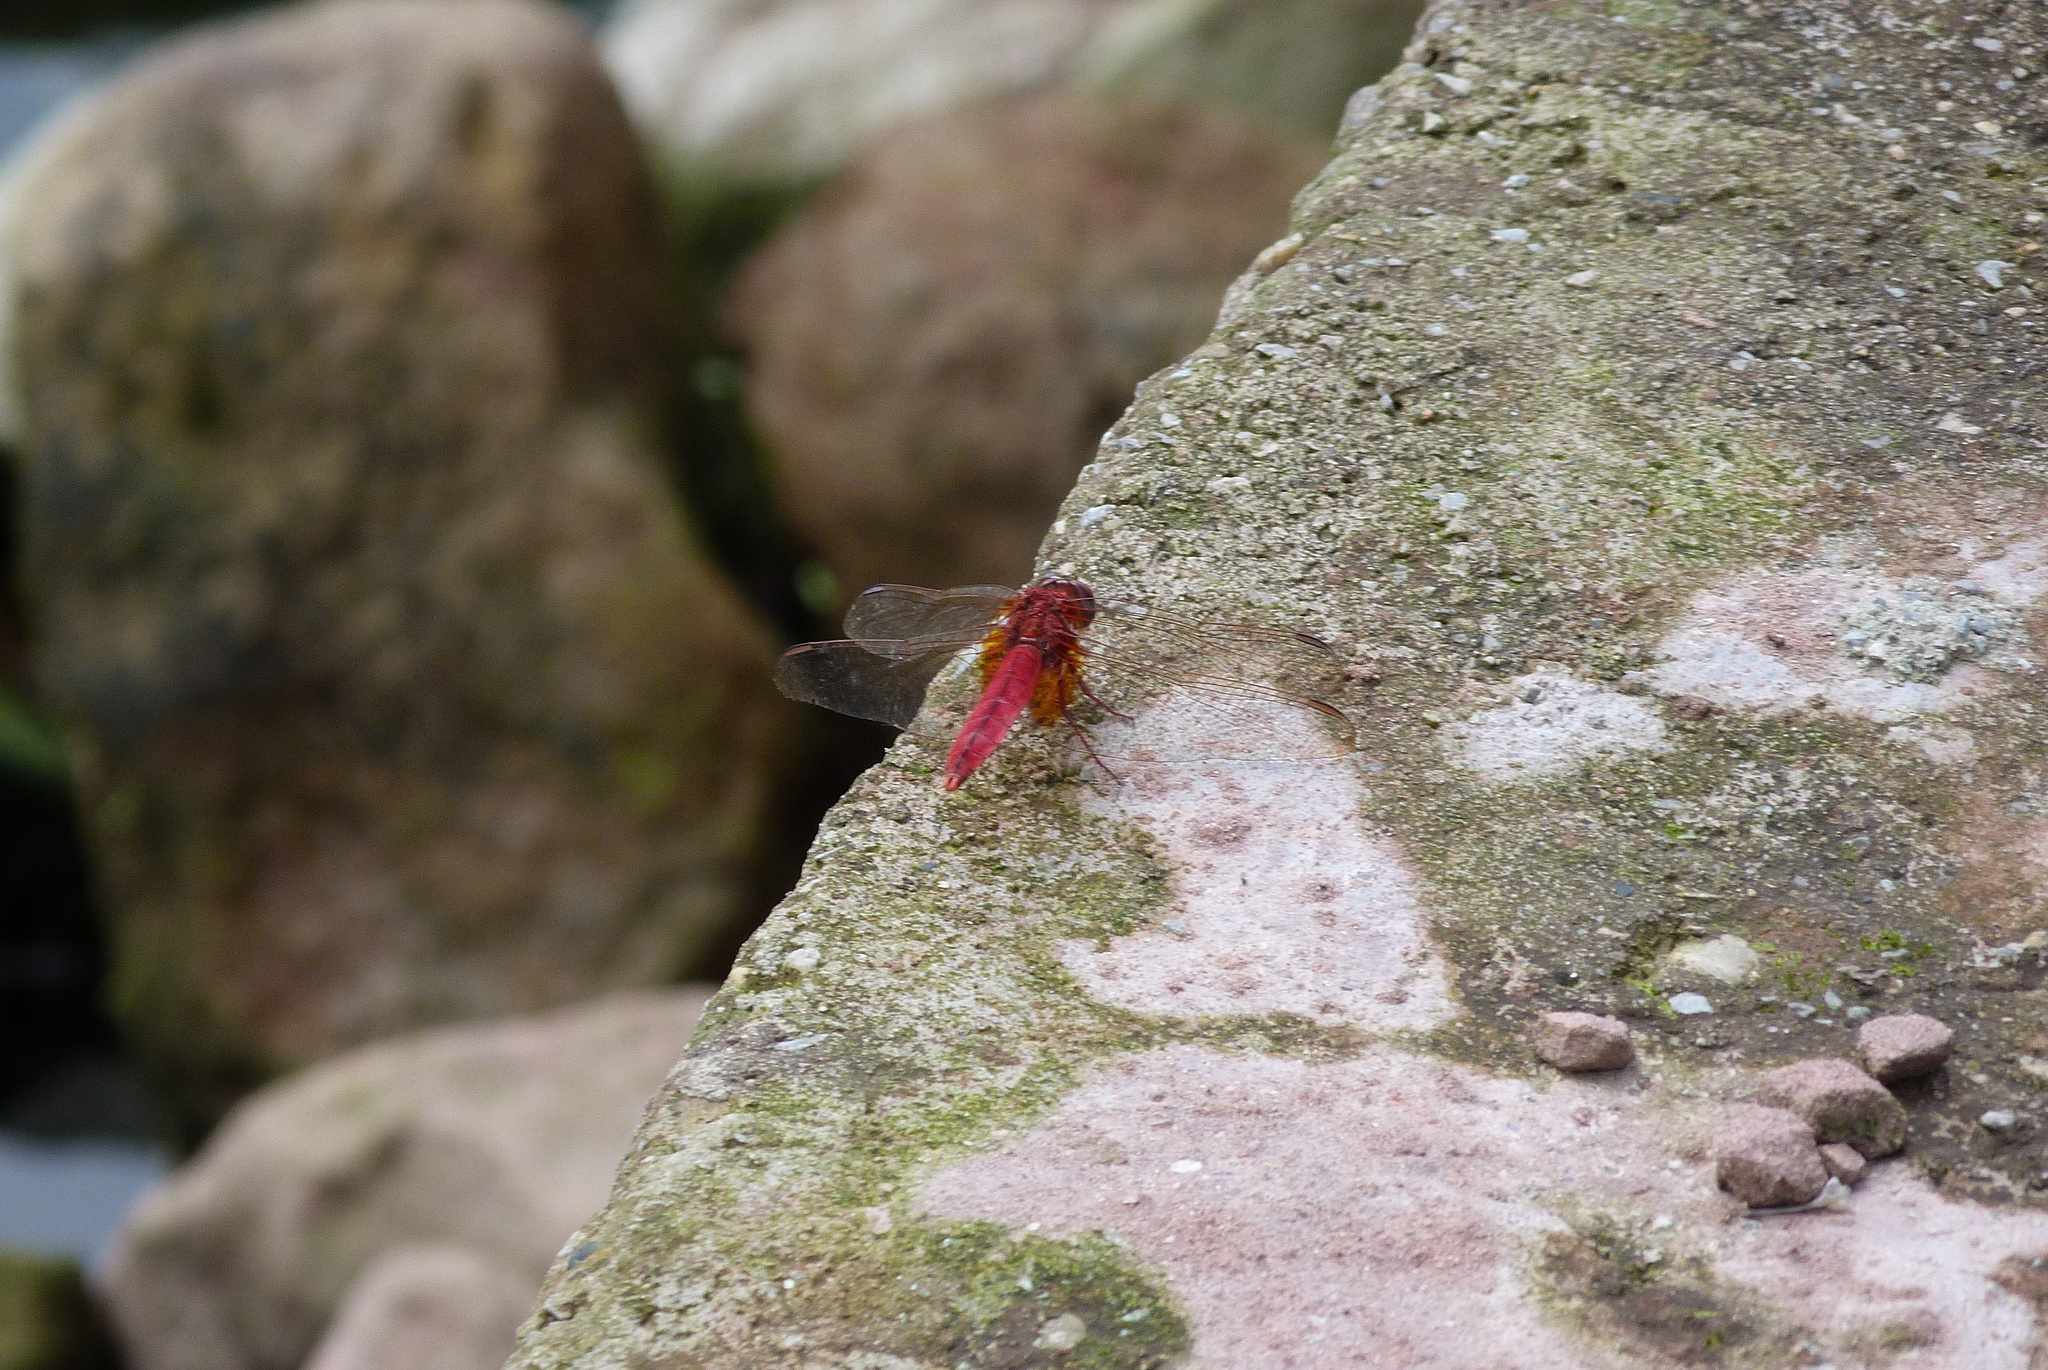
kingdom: Animalia
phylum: Arthropoda
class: Insecta
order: Odonata
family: Libellulidae
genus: Trithemis
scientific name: Trithemis aurora
